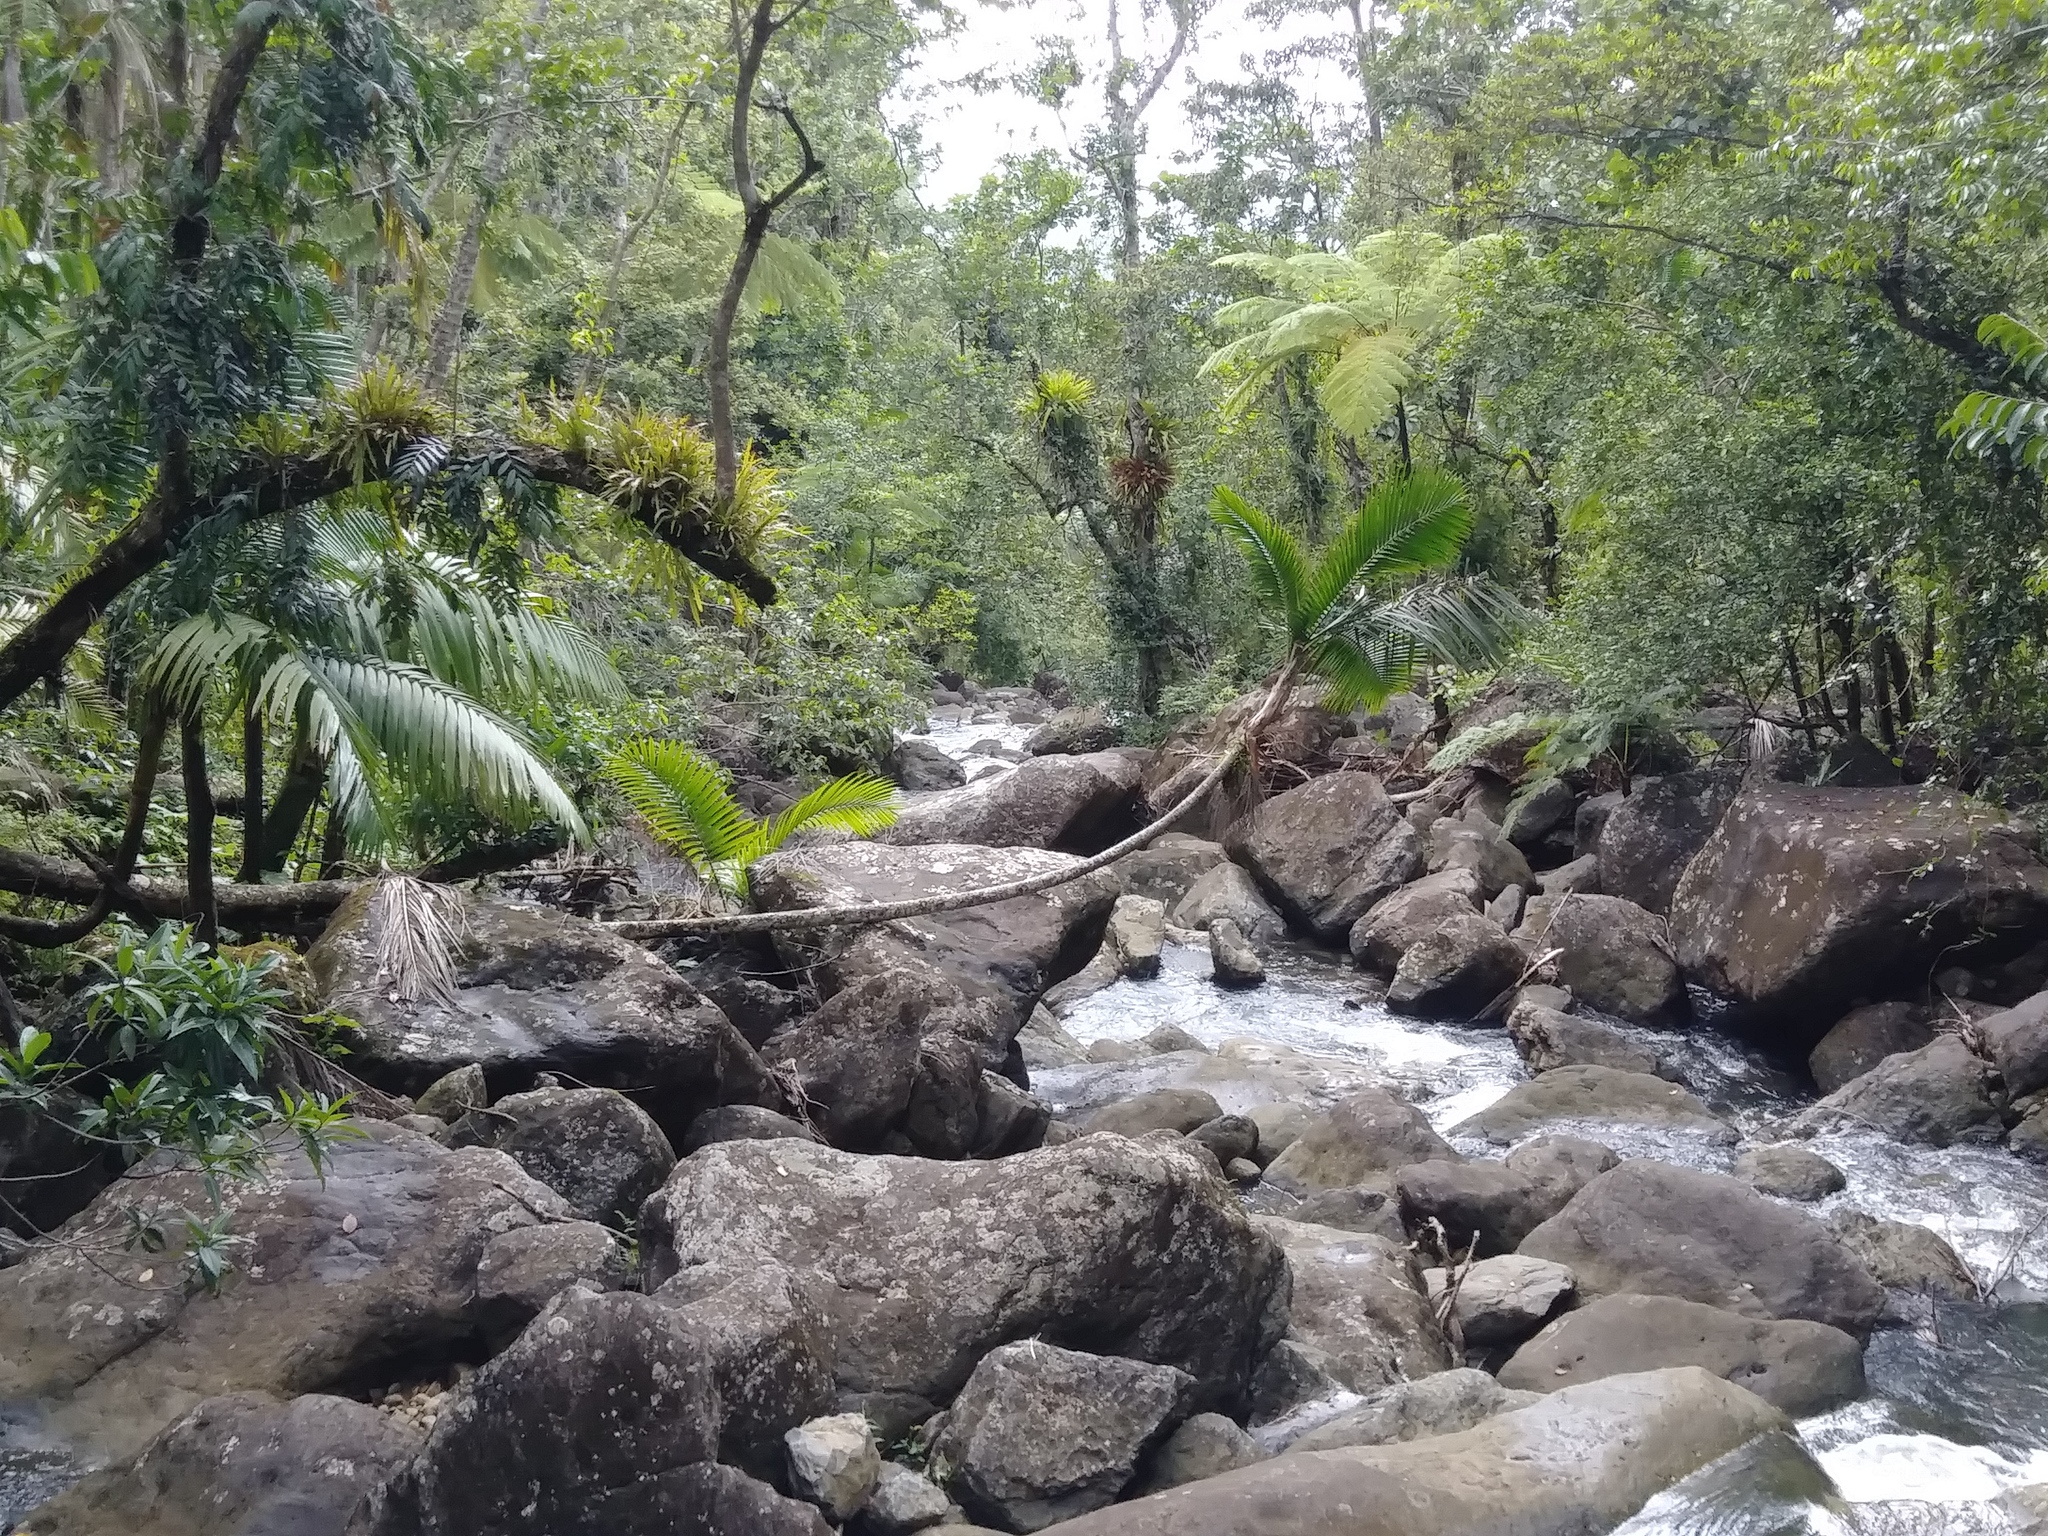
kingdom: Plantae
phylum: Tracheophyta
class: Liliopsida
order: Arecales
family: Arecaceae
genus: Prestoea
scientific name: Prestoea acuminata
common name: Sierran palm
